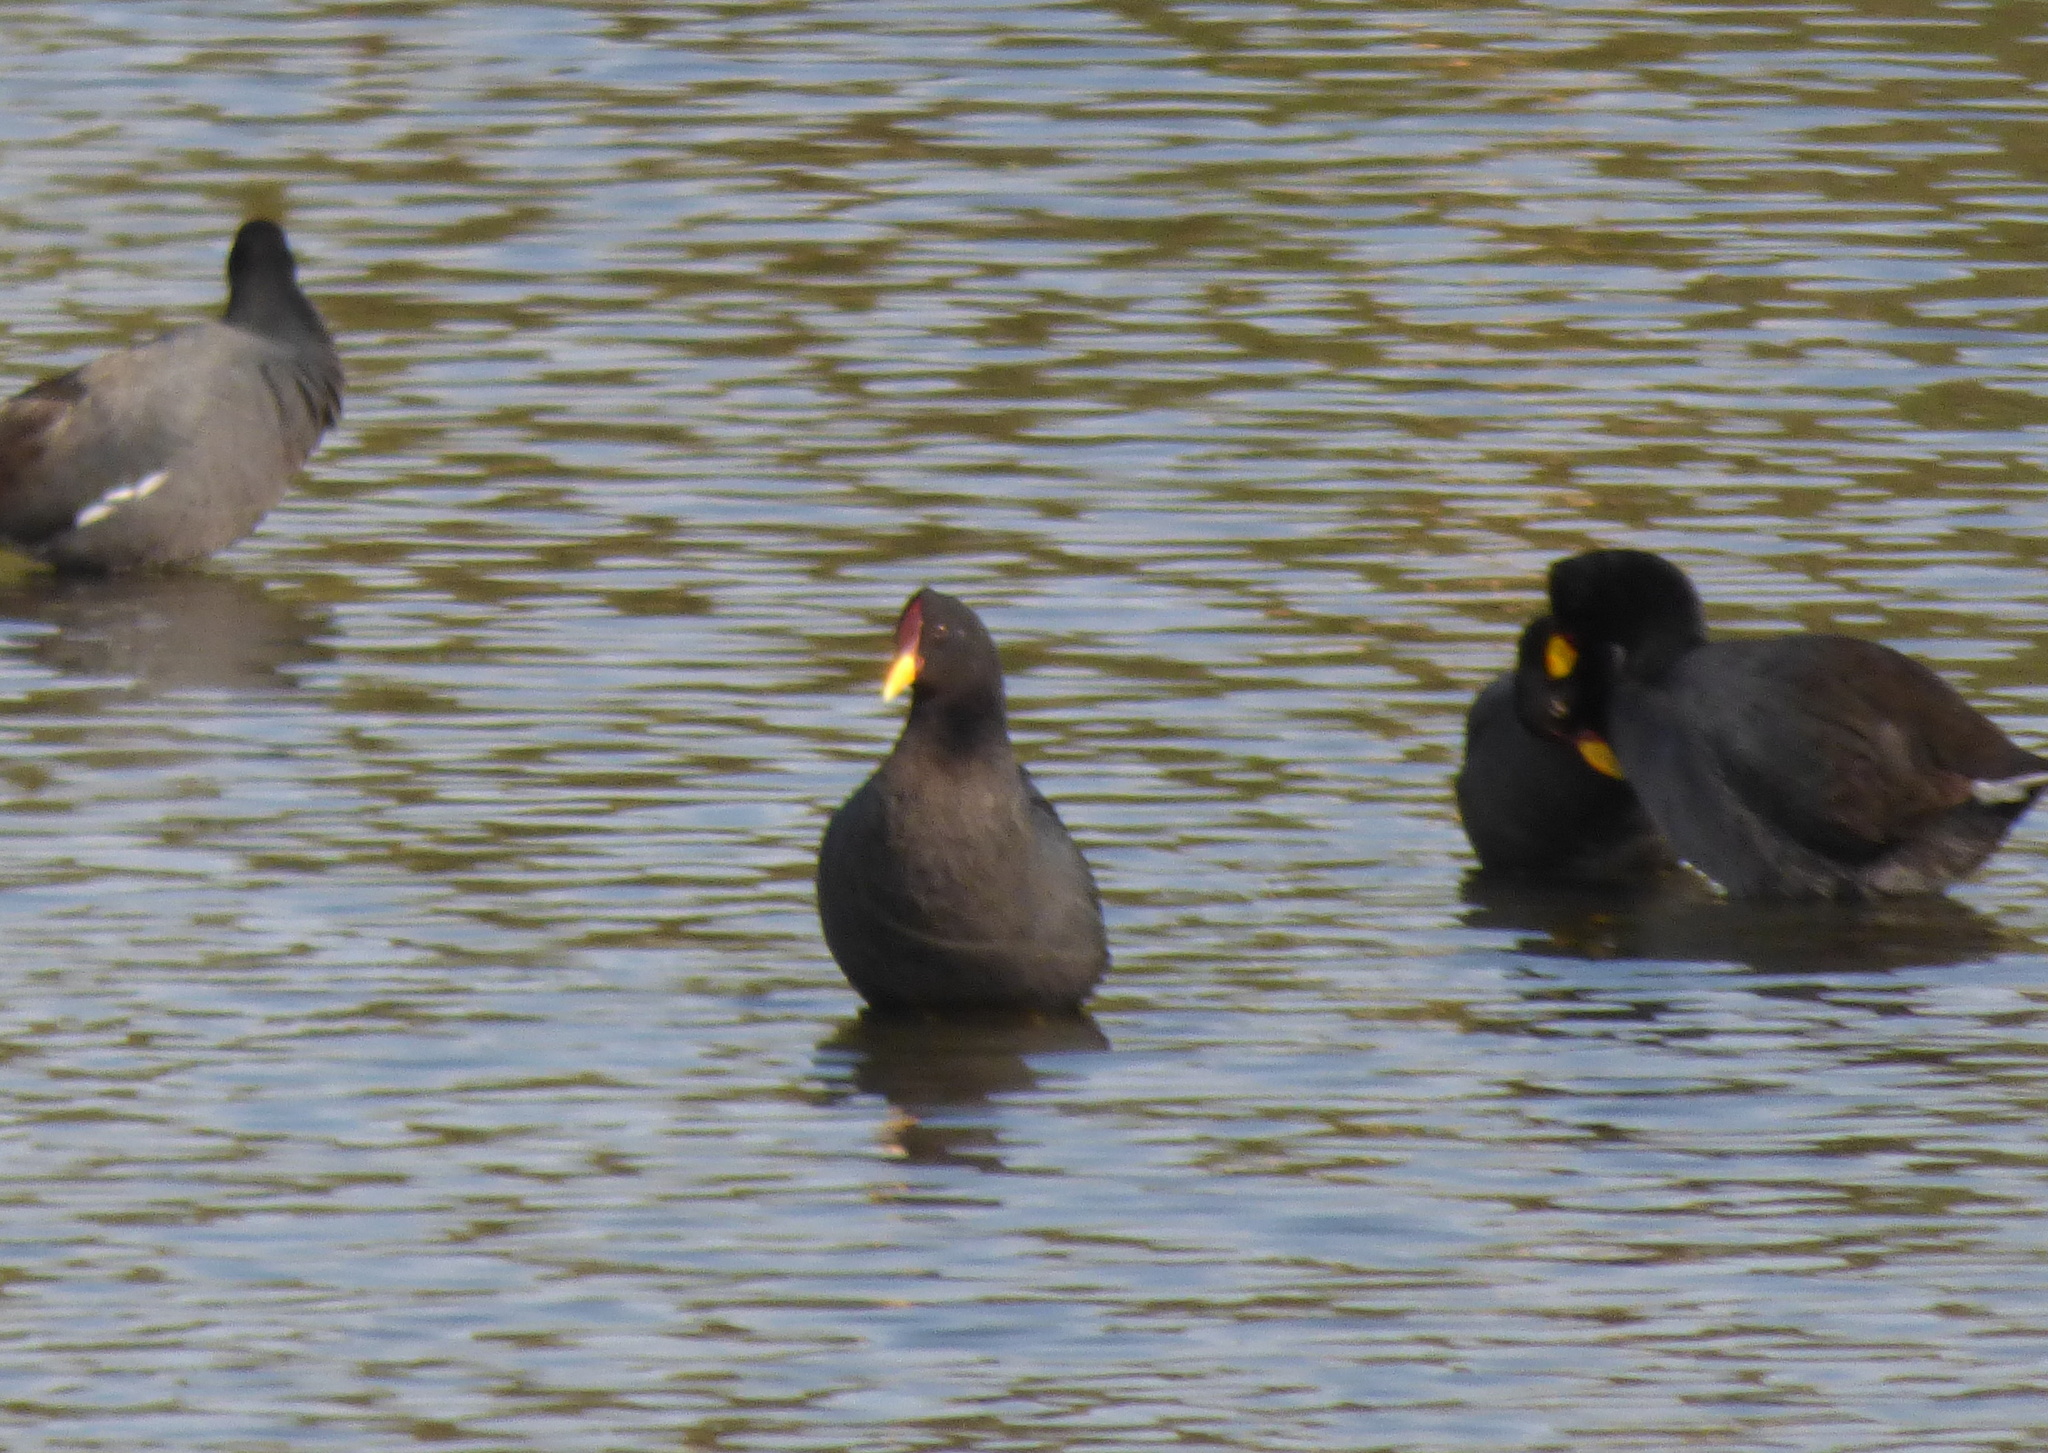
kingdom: Animalia
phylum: Chordata
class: Aves
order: Gruiformes
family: Rallidae
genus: Fulica
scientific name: Fulica rufifrons
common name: Red-fronted coot
